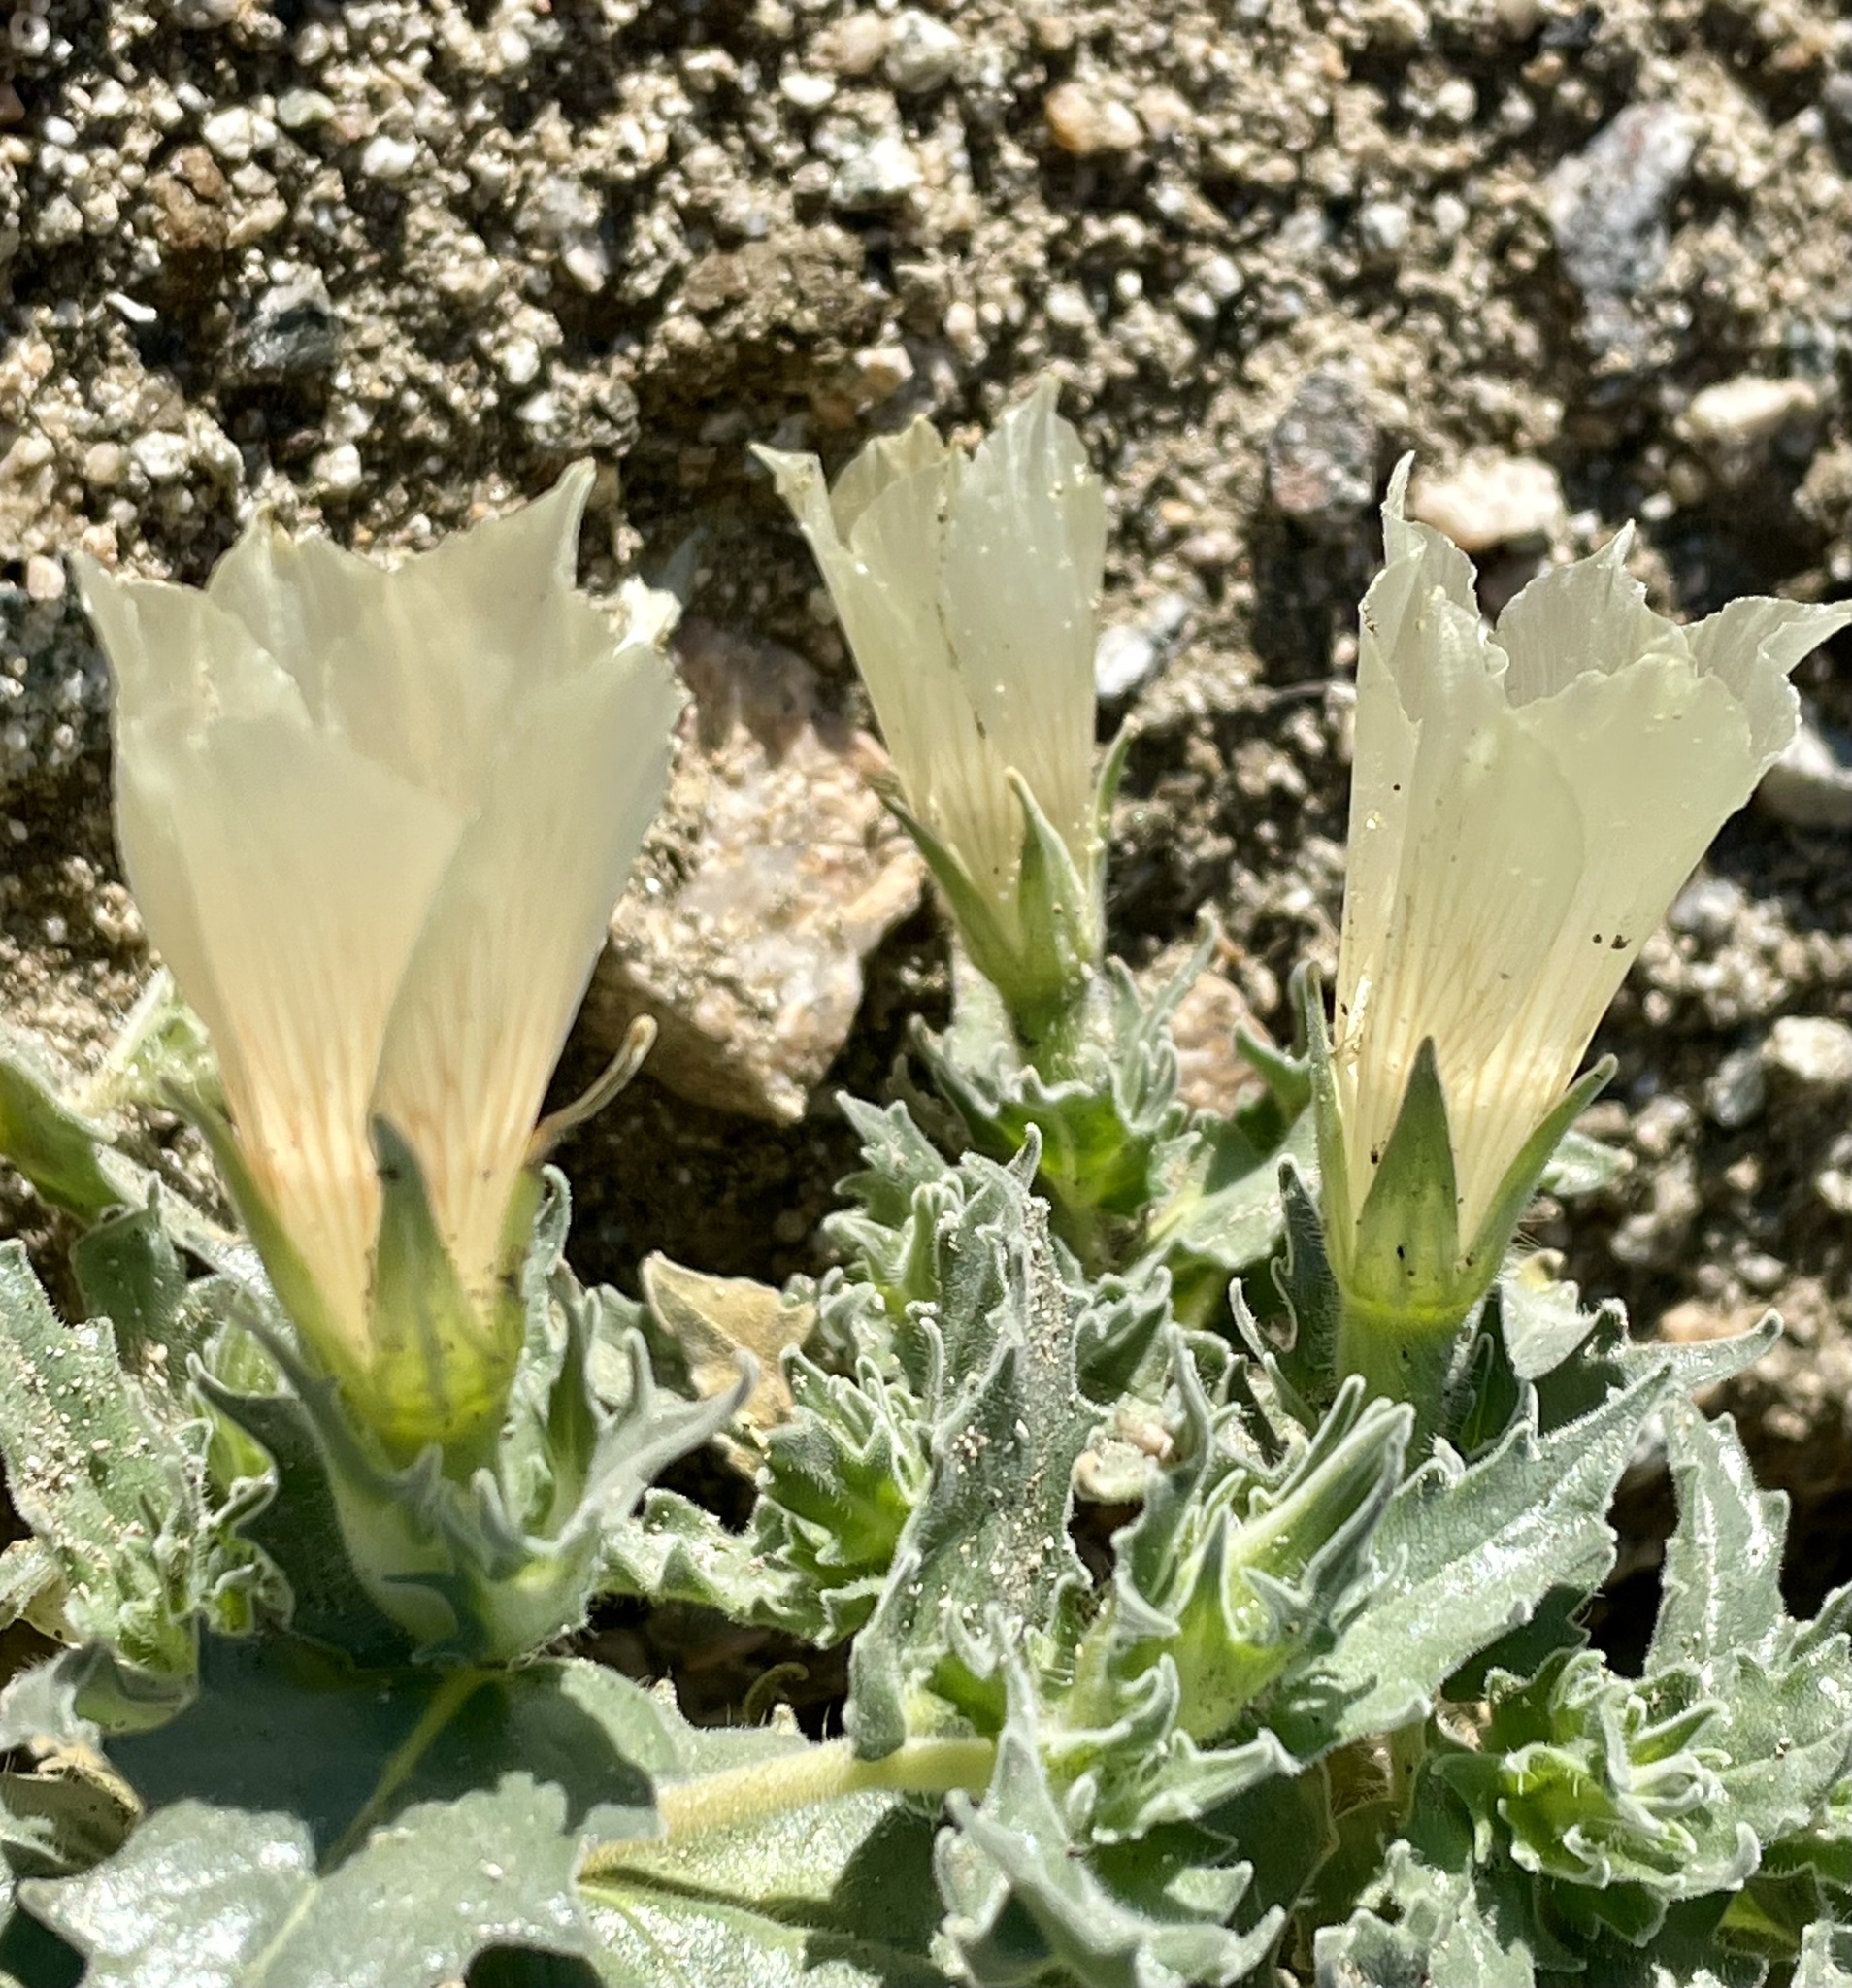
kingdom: Plantae
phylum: Tracheophyta
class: Magnoliopsida
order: Cornales
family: Loasaceae
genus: Mentzelia
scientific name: Mentzelia involucrata
